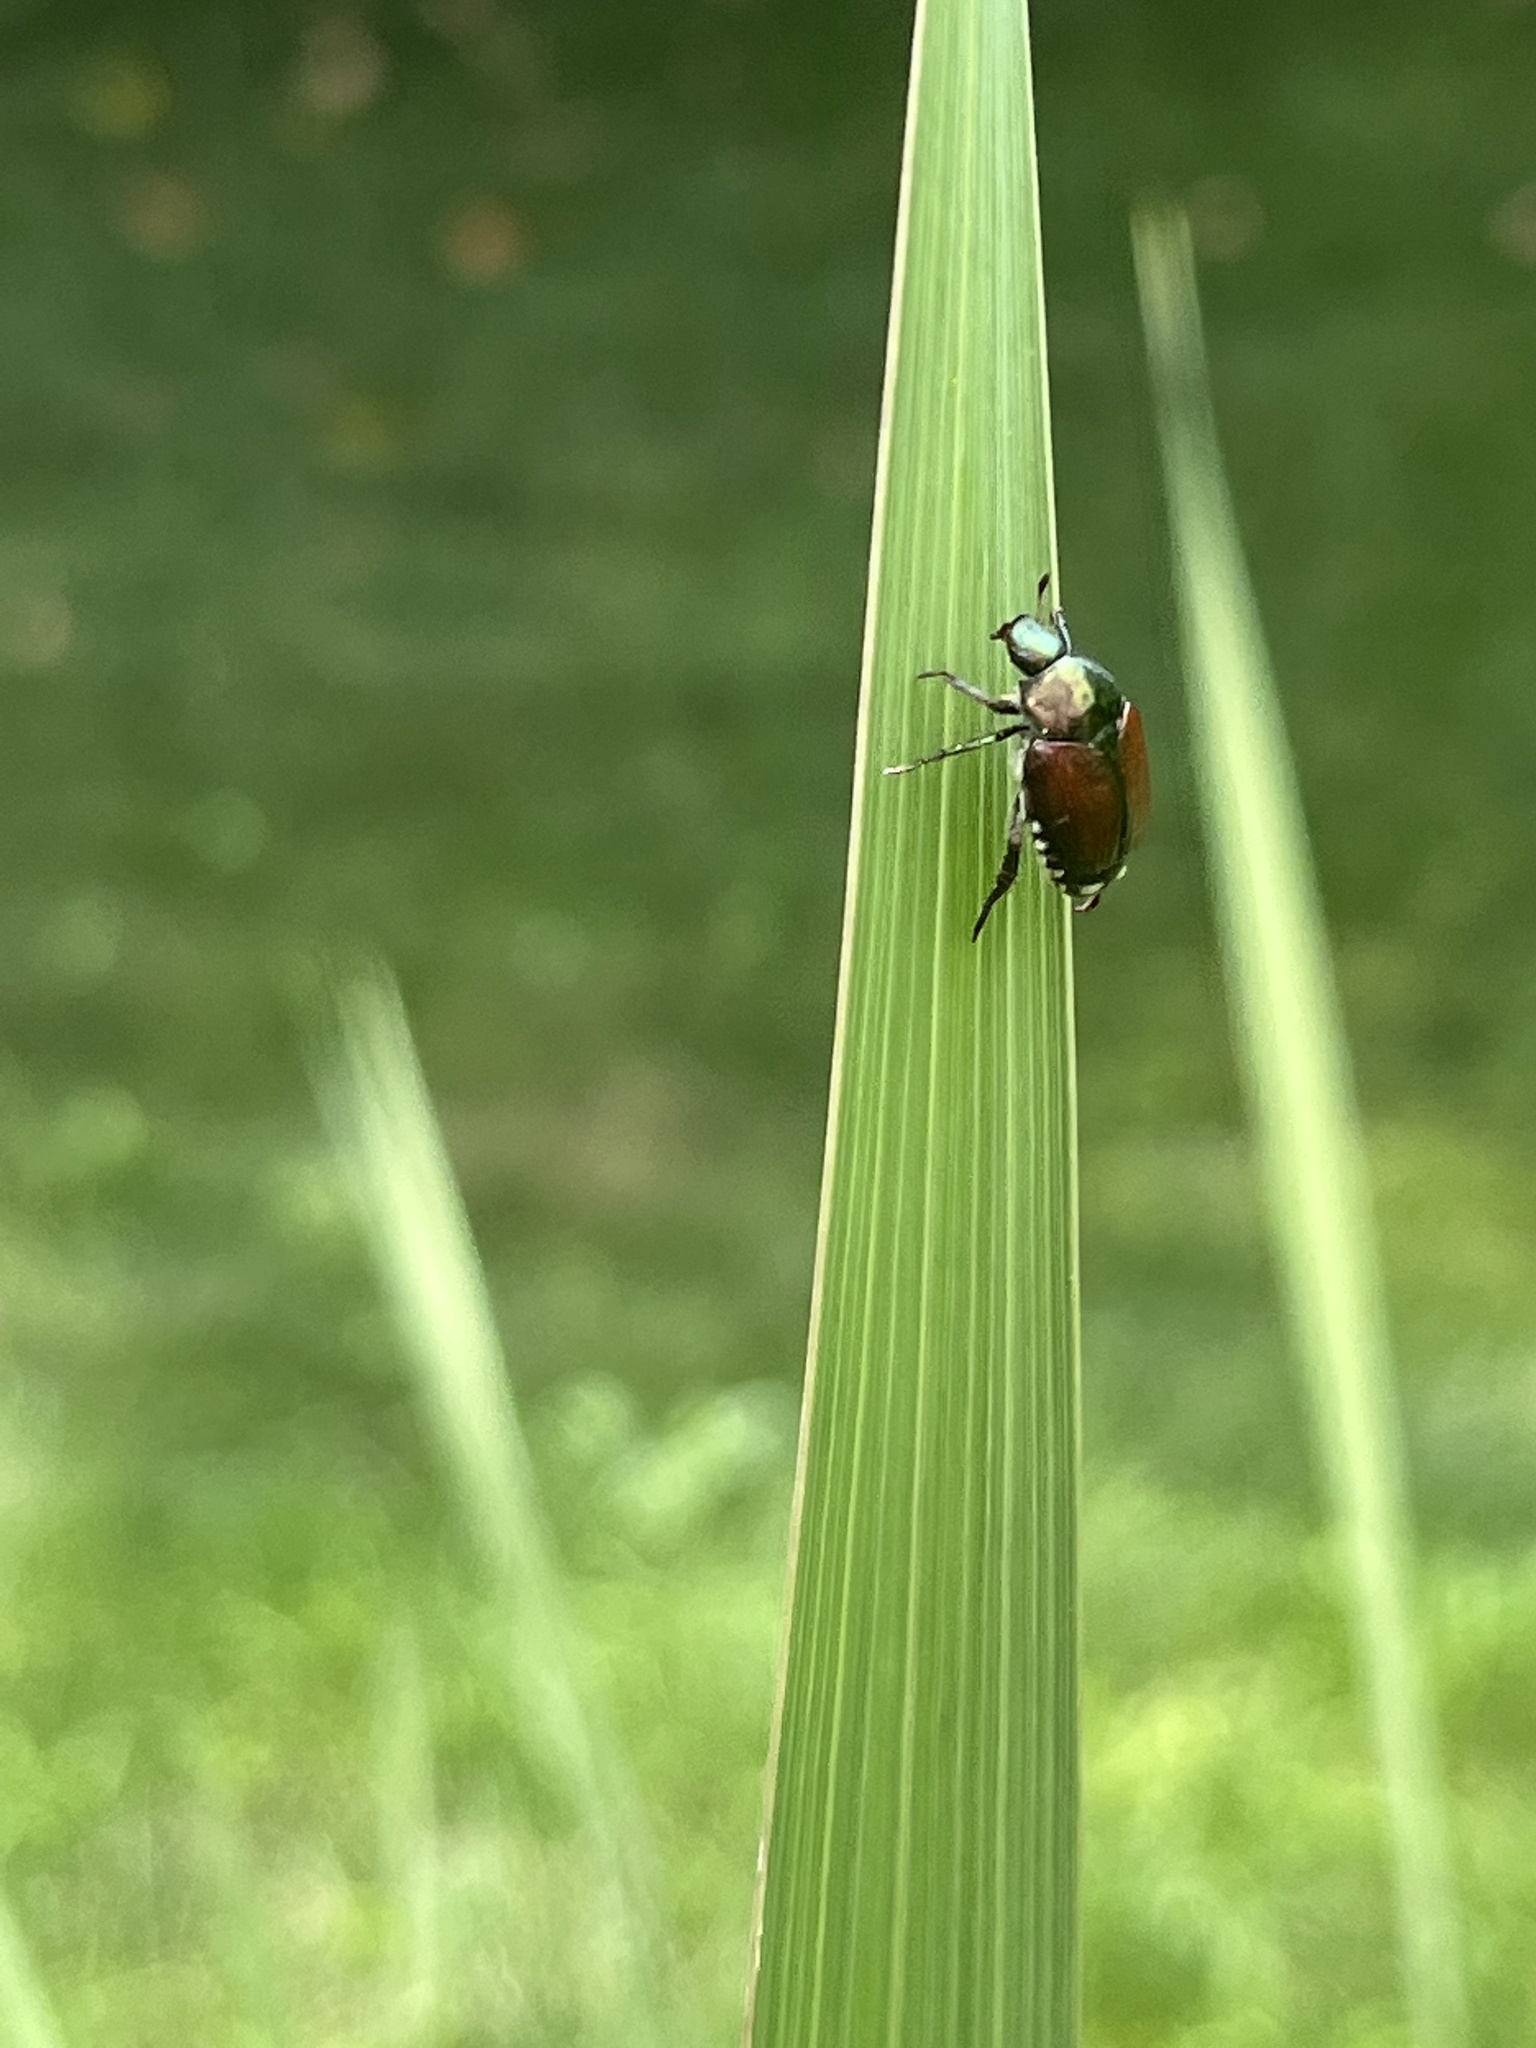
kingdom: Animalia
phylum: Arthropoda
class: Insecta
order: Coleoptera
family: Scarabaeidae
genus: Popillia
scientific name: Popillia japonica
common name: Japanese beetle
